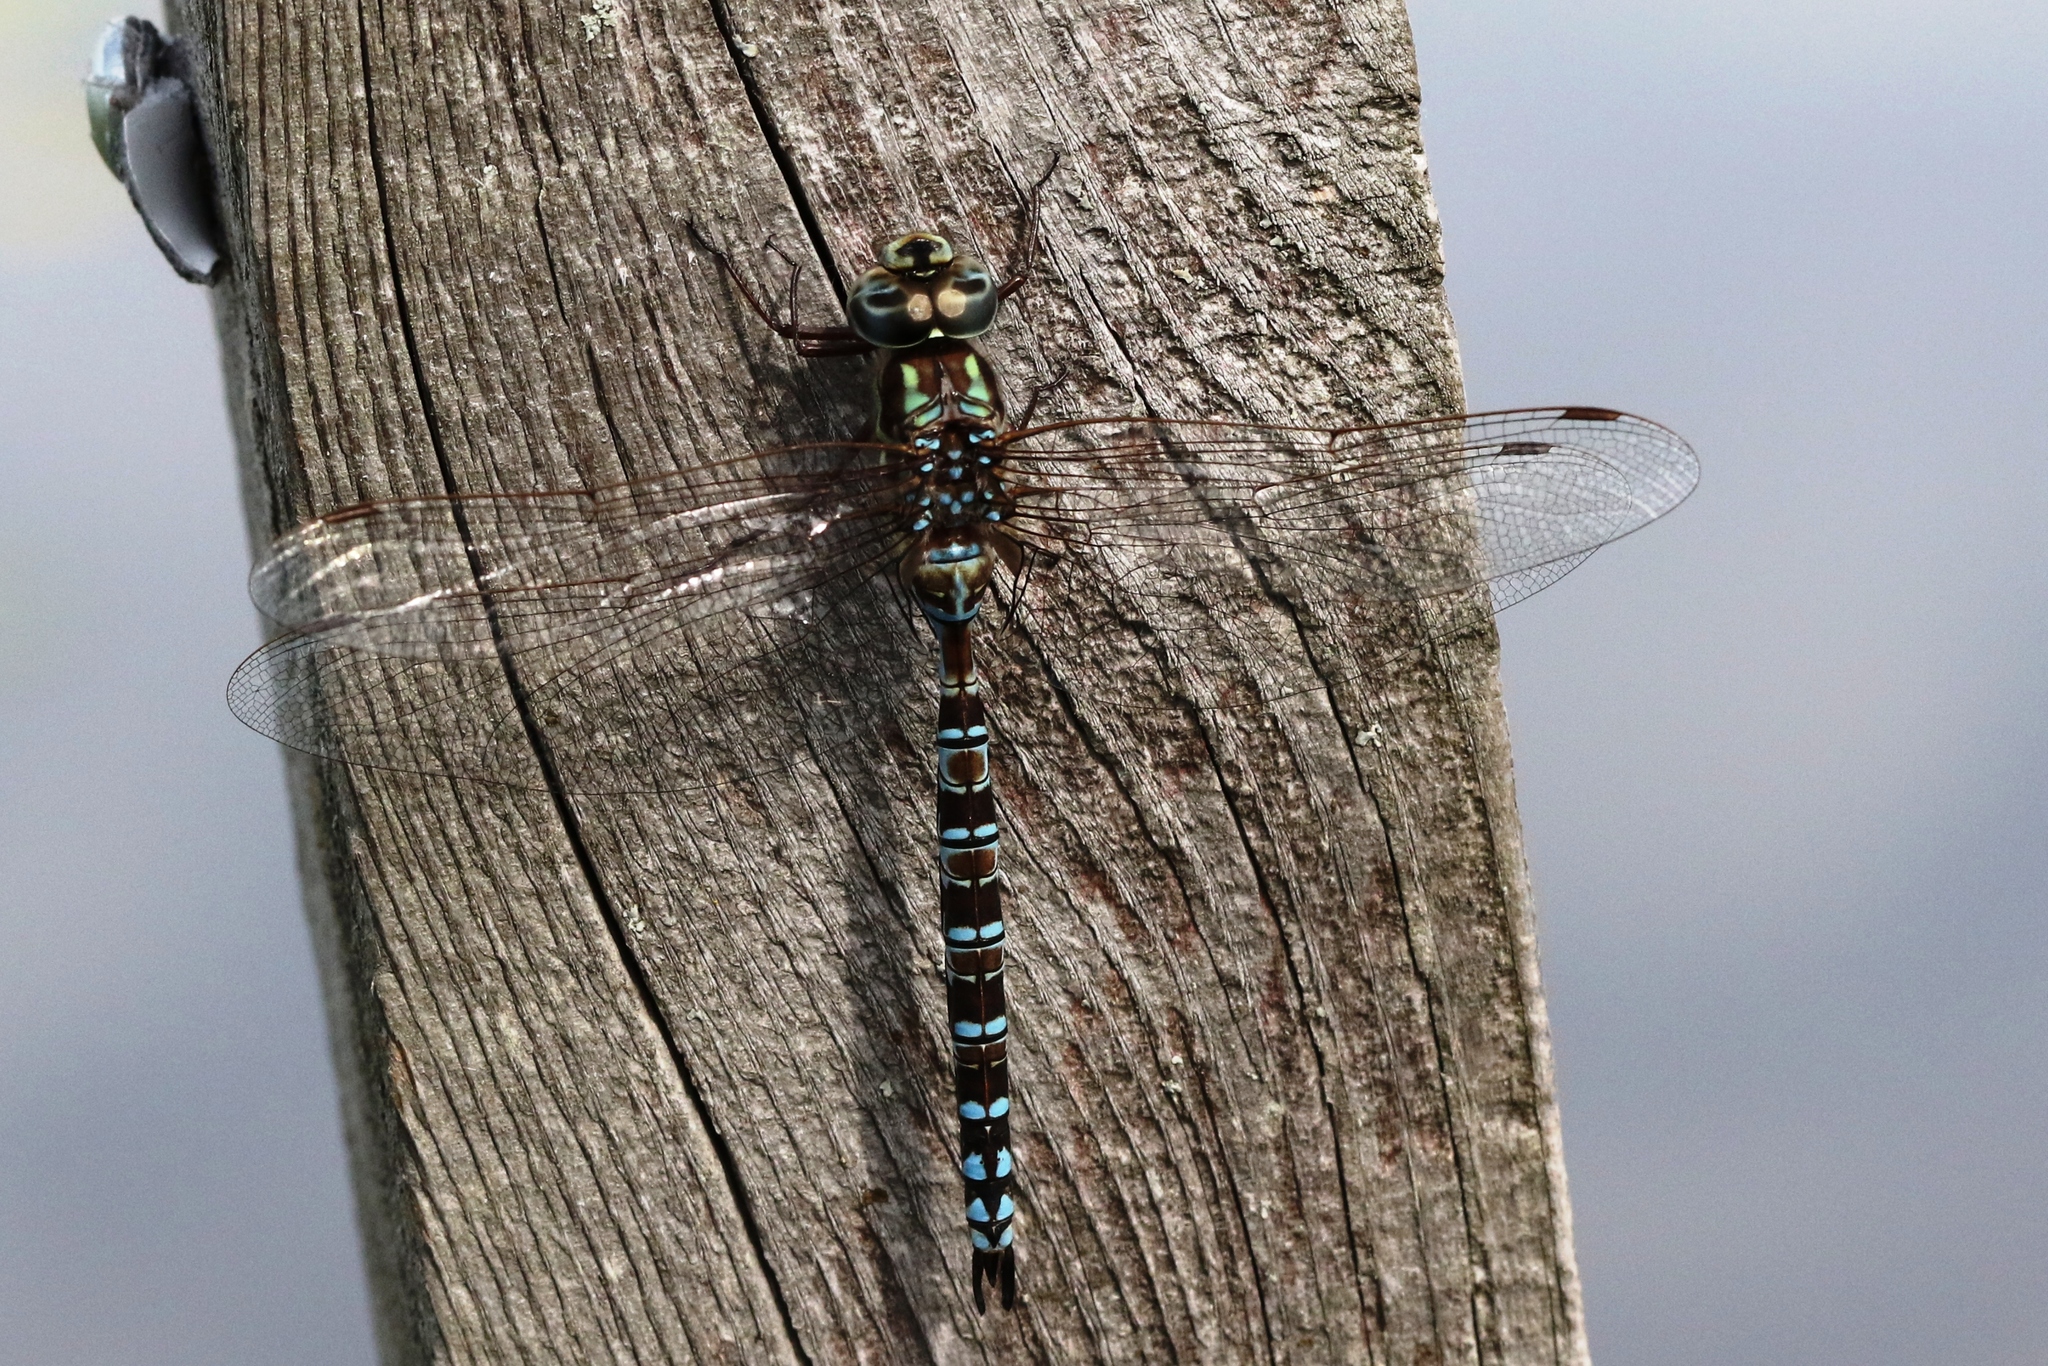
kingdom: Animalia
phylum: Arthropoda
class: Insecta
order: Odonata
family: Aeshnidae
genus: Aeshna
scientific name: Aeshna clepsydra
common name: Mottled darner
